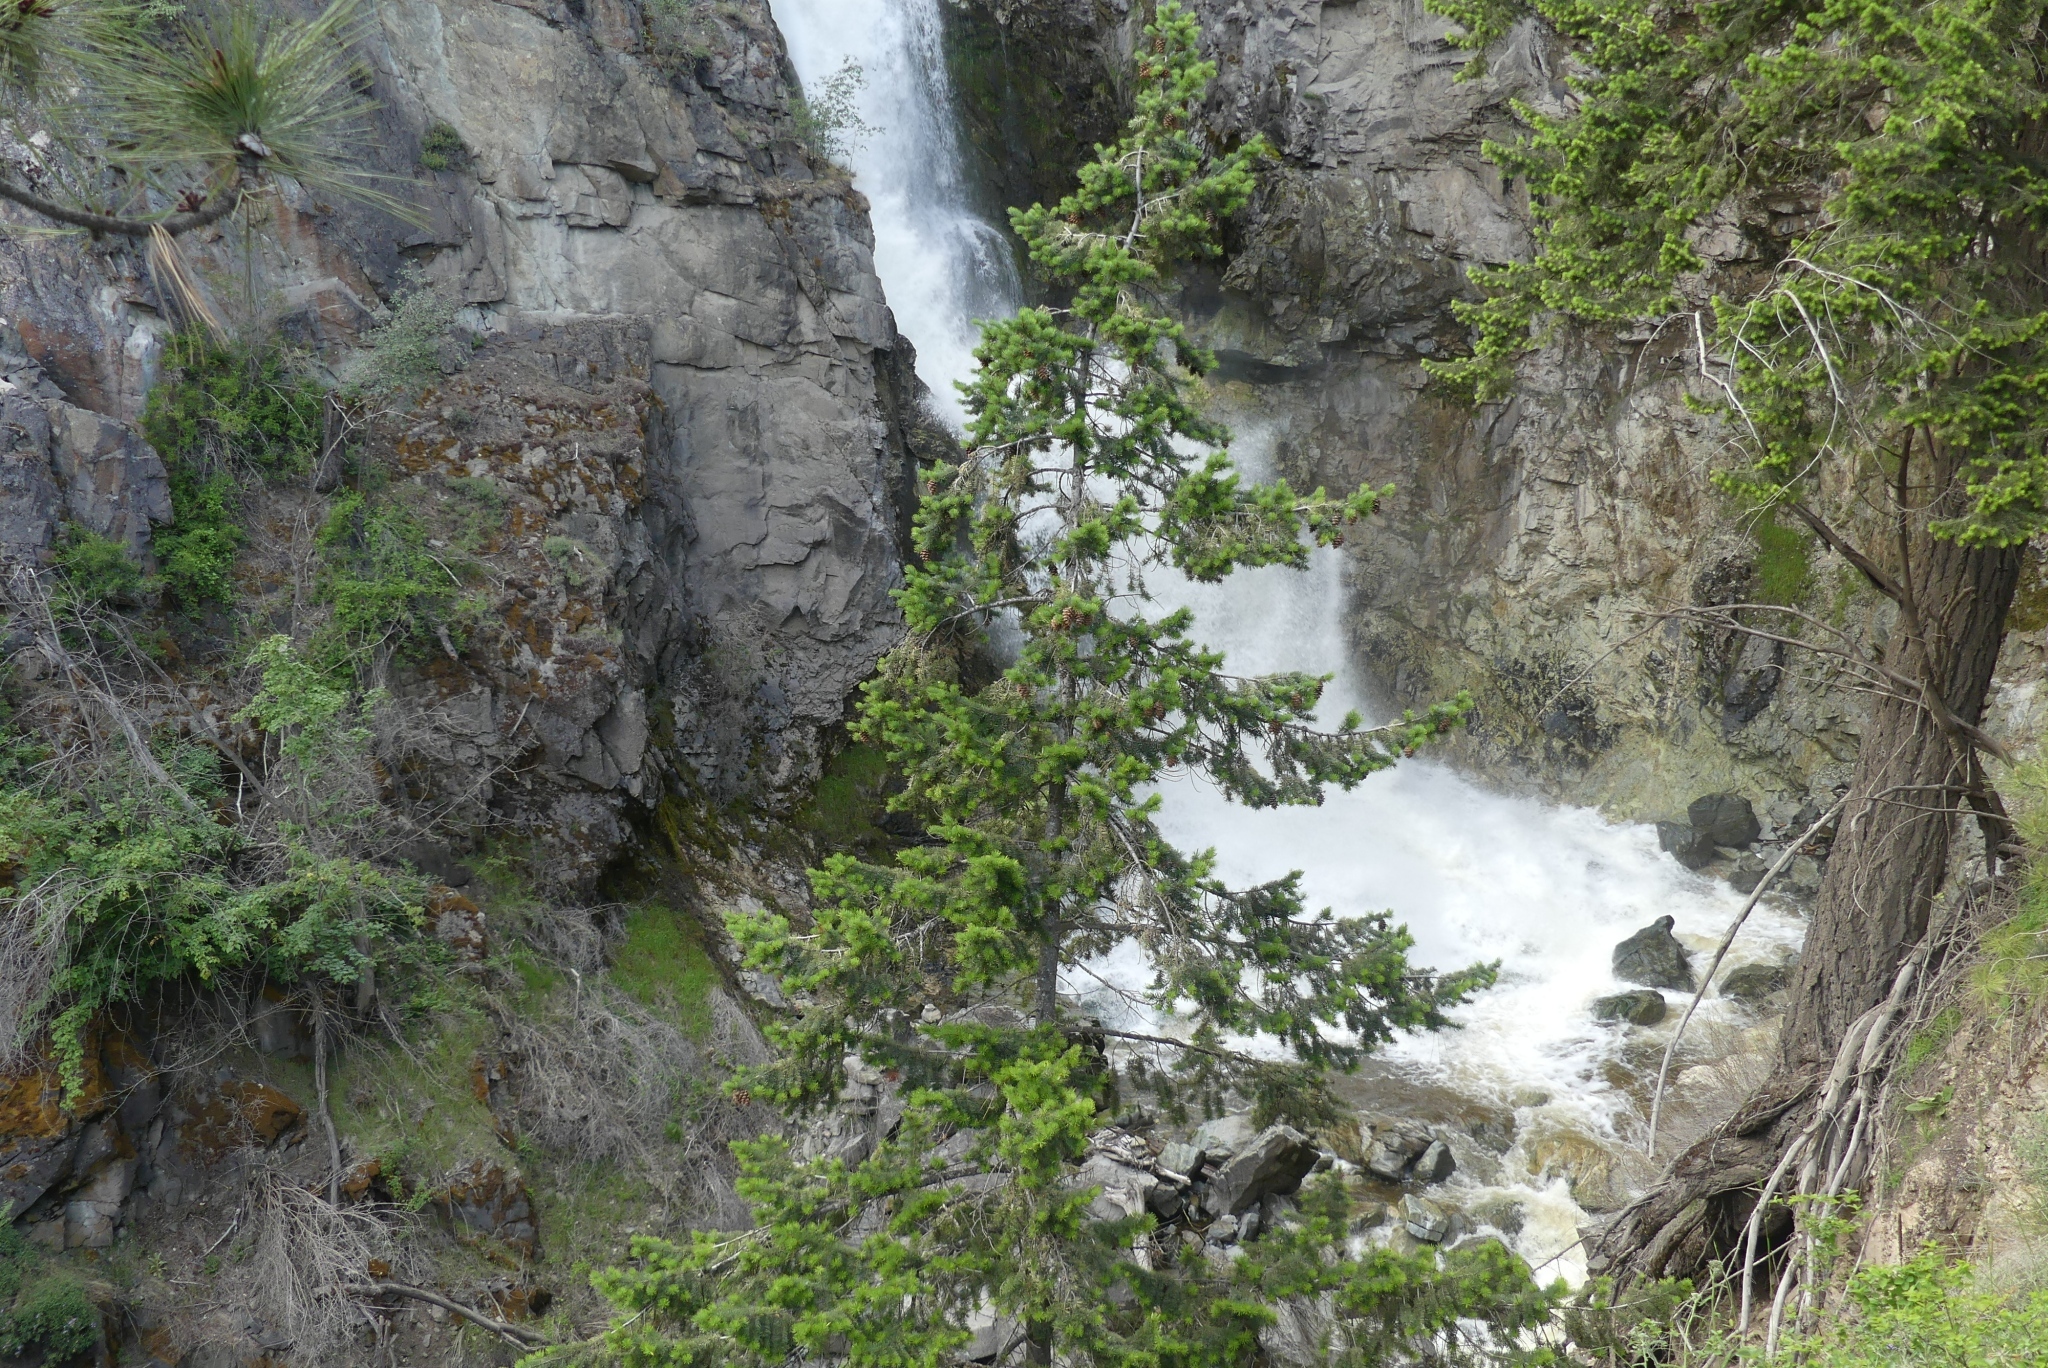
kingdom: Plantae
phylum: Tracheophyta
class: Pinopsida
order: Pinales
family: Pinaceae
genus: Pseudotsuga
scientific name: Pseudotsuga menziesii
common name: Douglas fir
